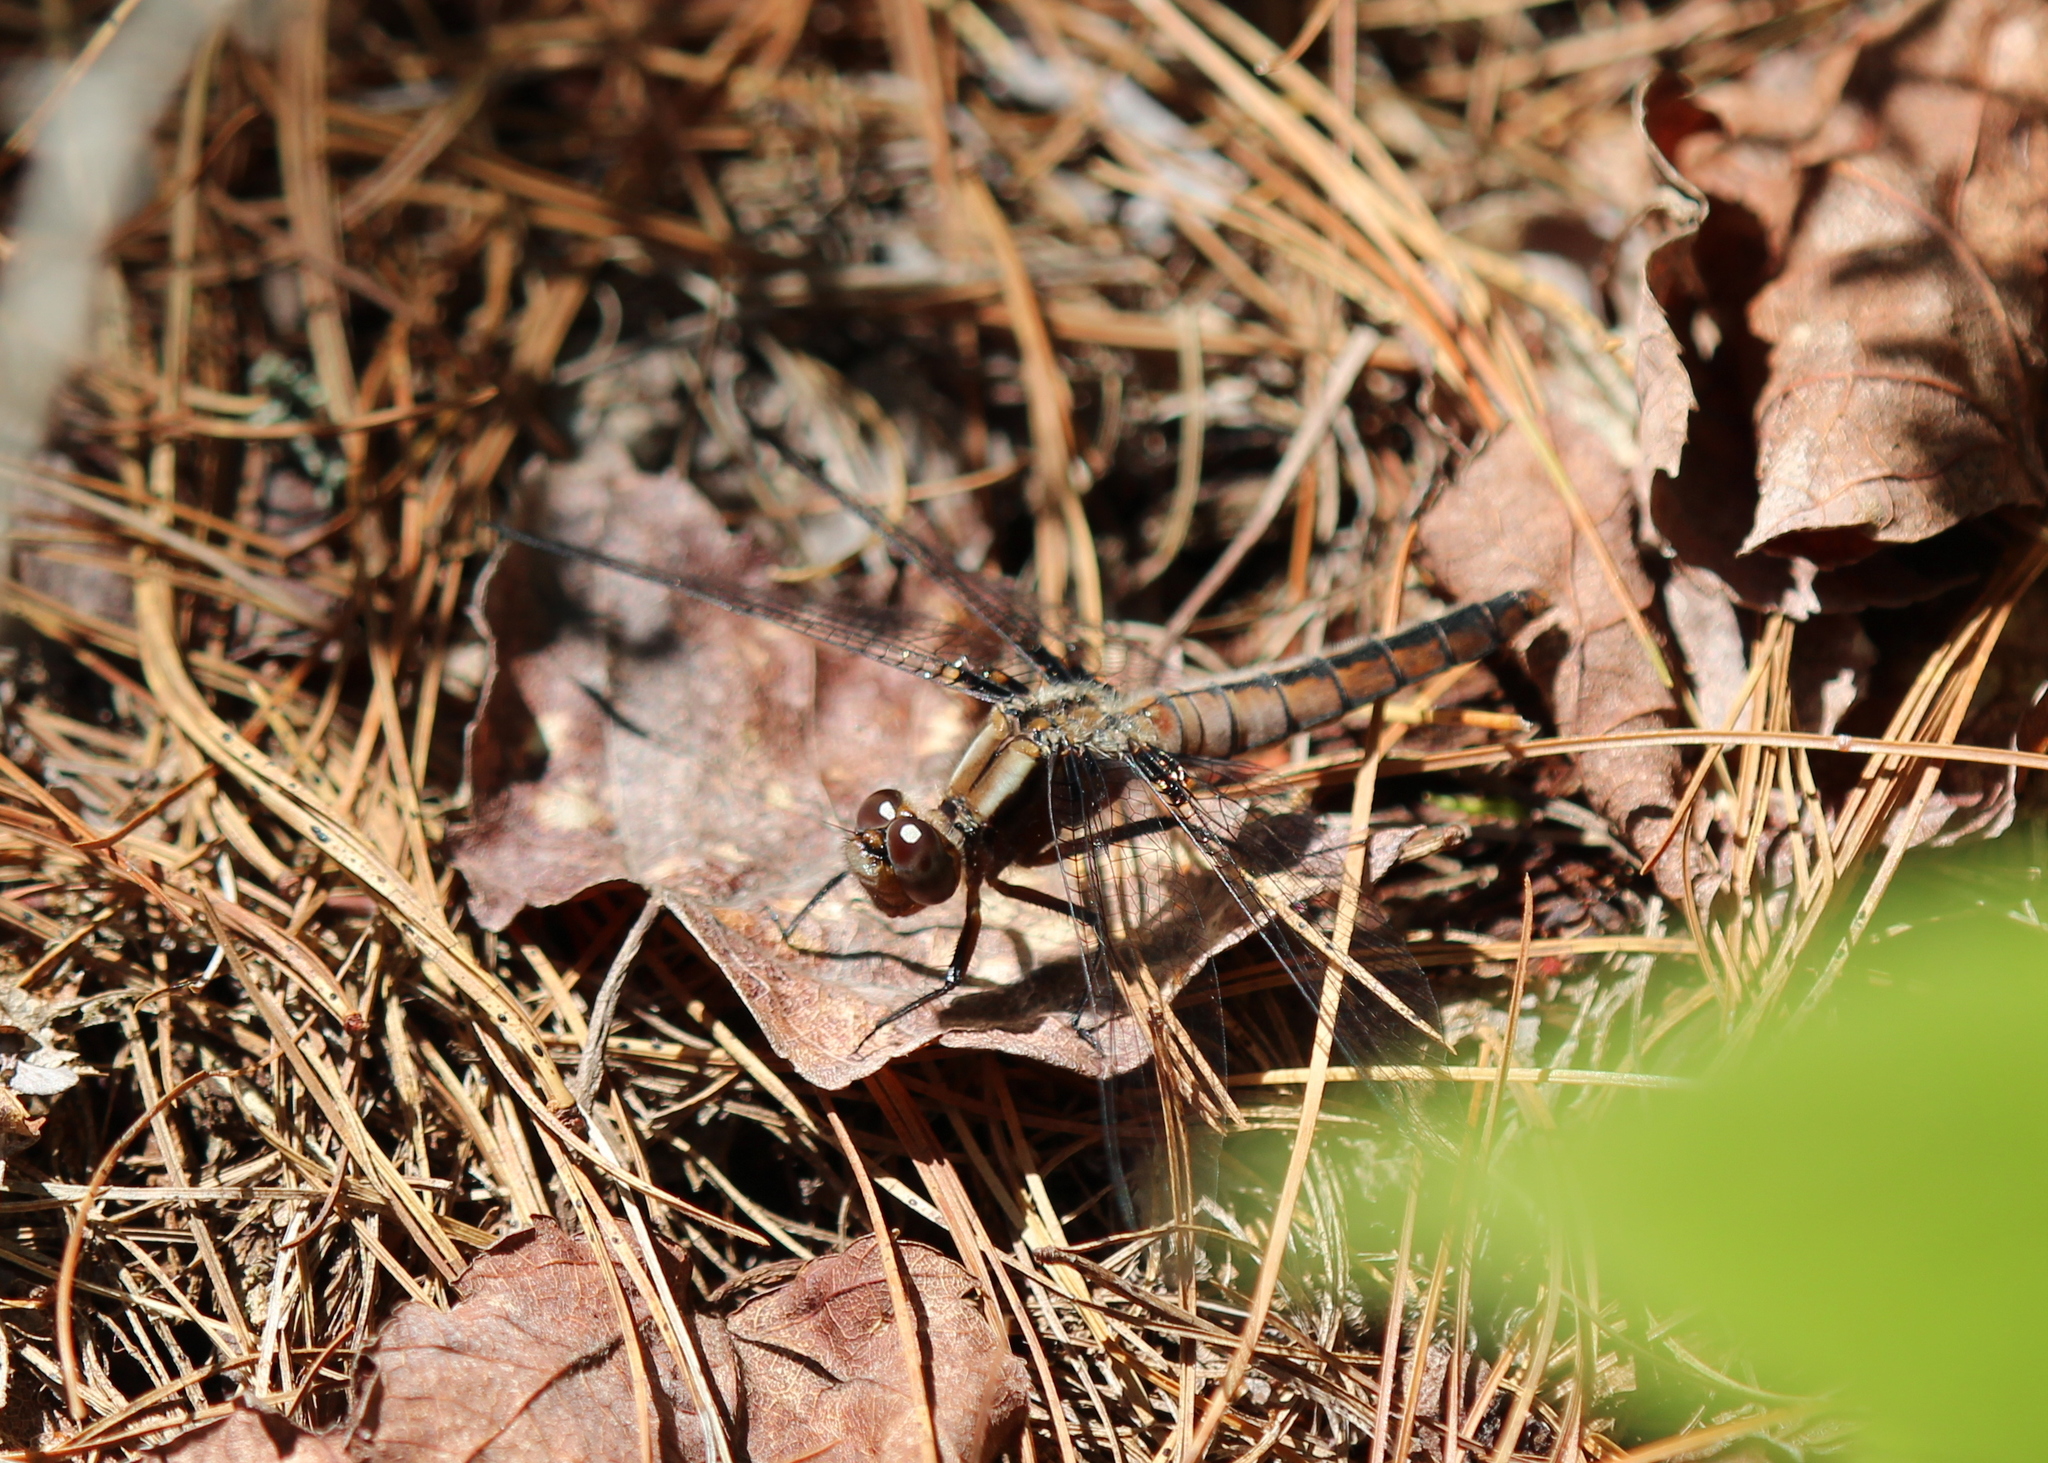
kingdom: Animalia
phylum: Arthropoda
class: Insecta
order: Odonata
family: Libellulidae
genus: Ladona
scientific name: Ladona julia
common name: Chalk-fronted corporal
